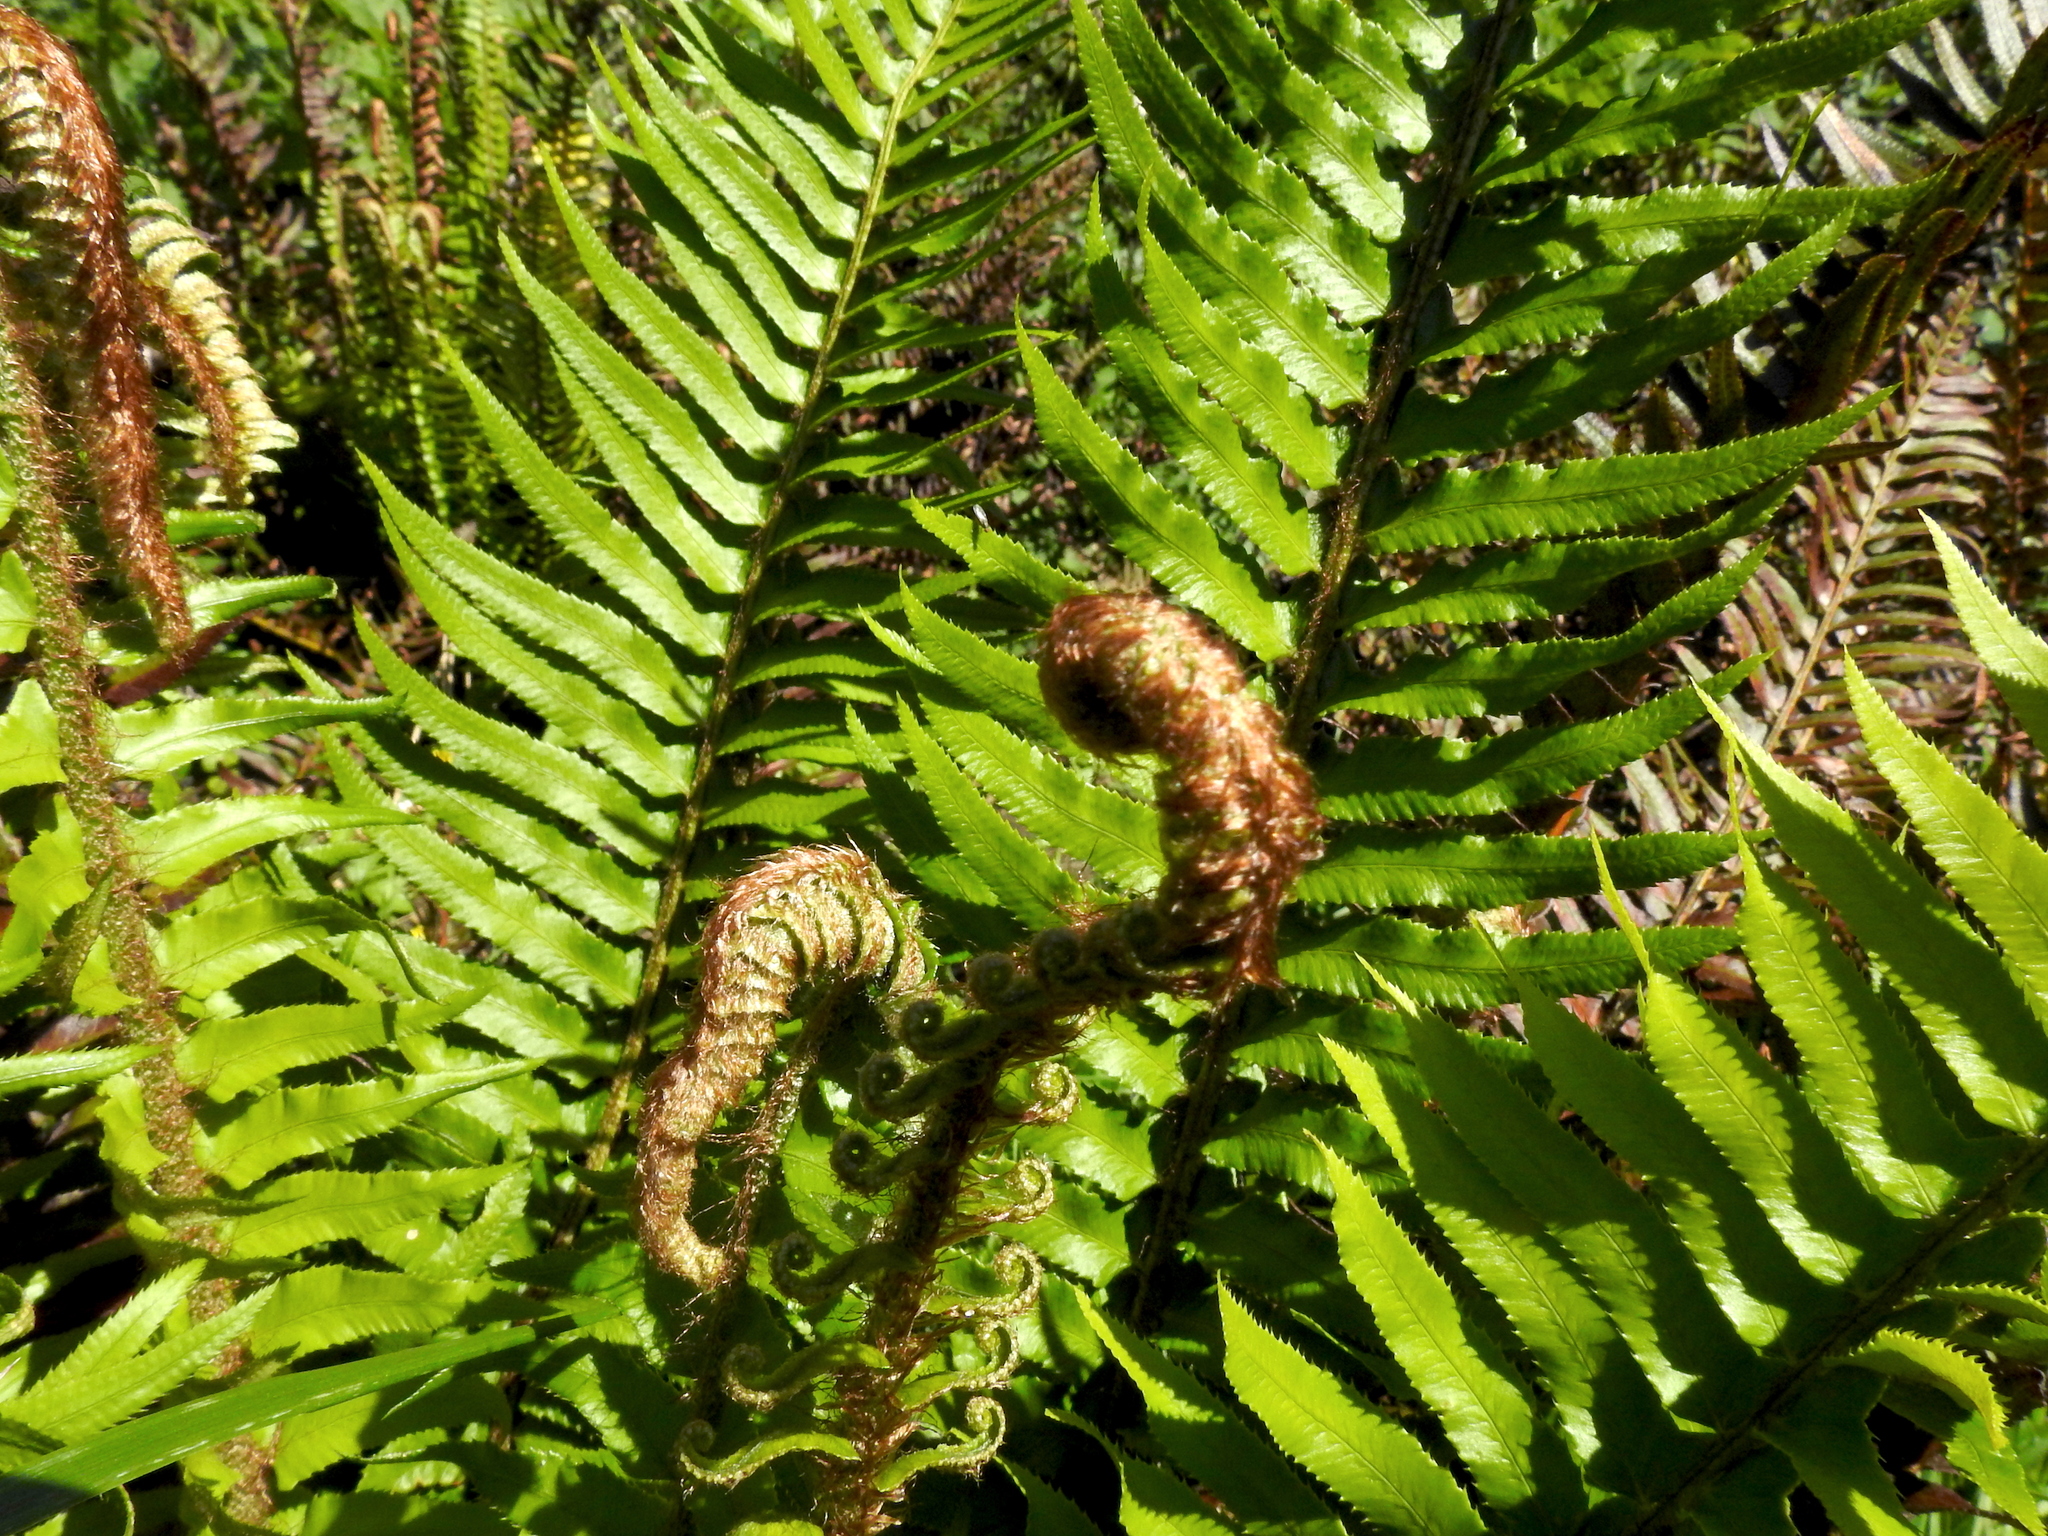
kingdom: Plantae
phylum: Tracheophyta
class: Polypodiopsida
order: Polypodiales
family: Dryopteridaceae
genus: Polystichum
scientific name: Polystichum munitum
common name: Western sword-fern
